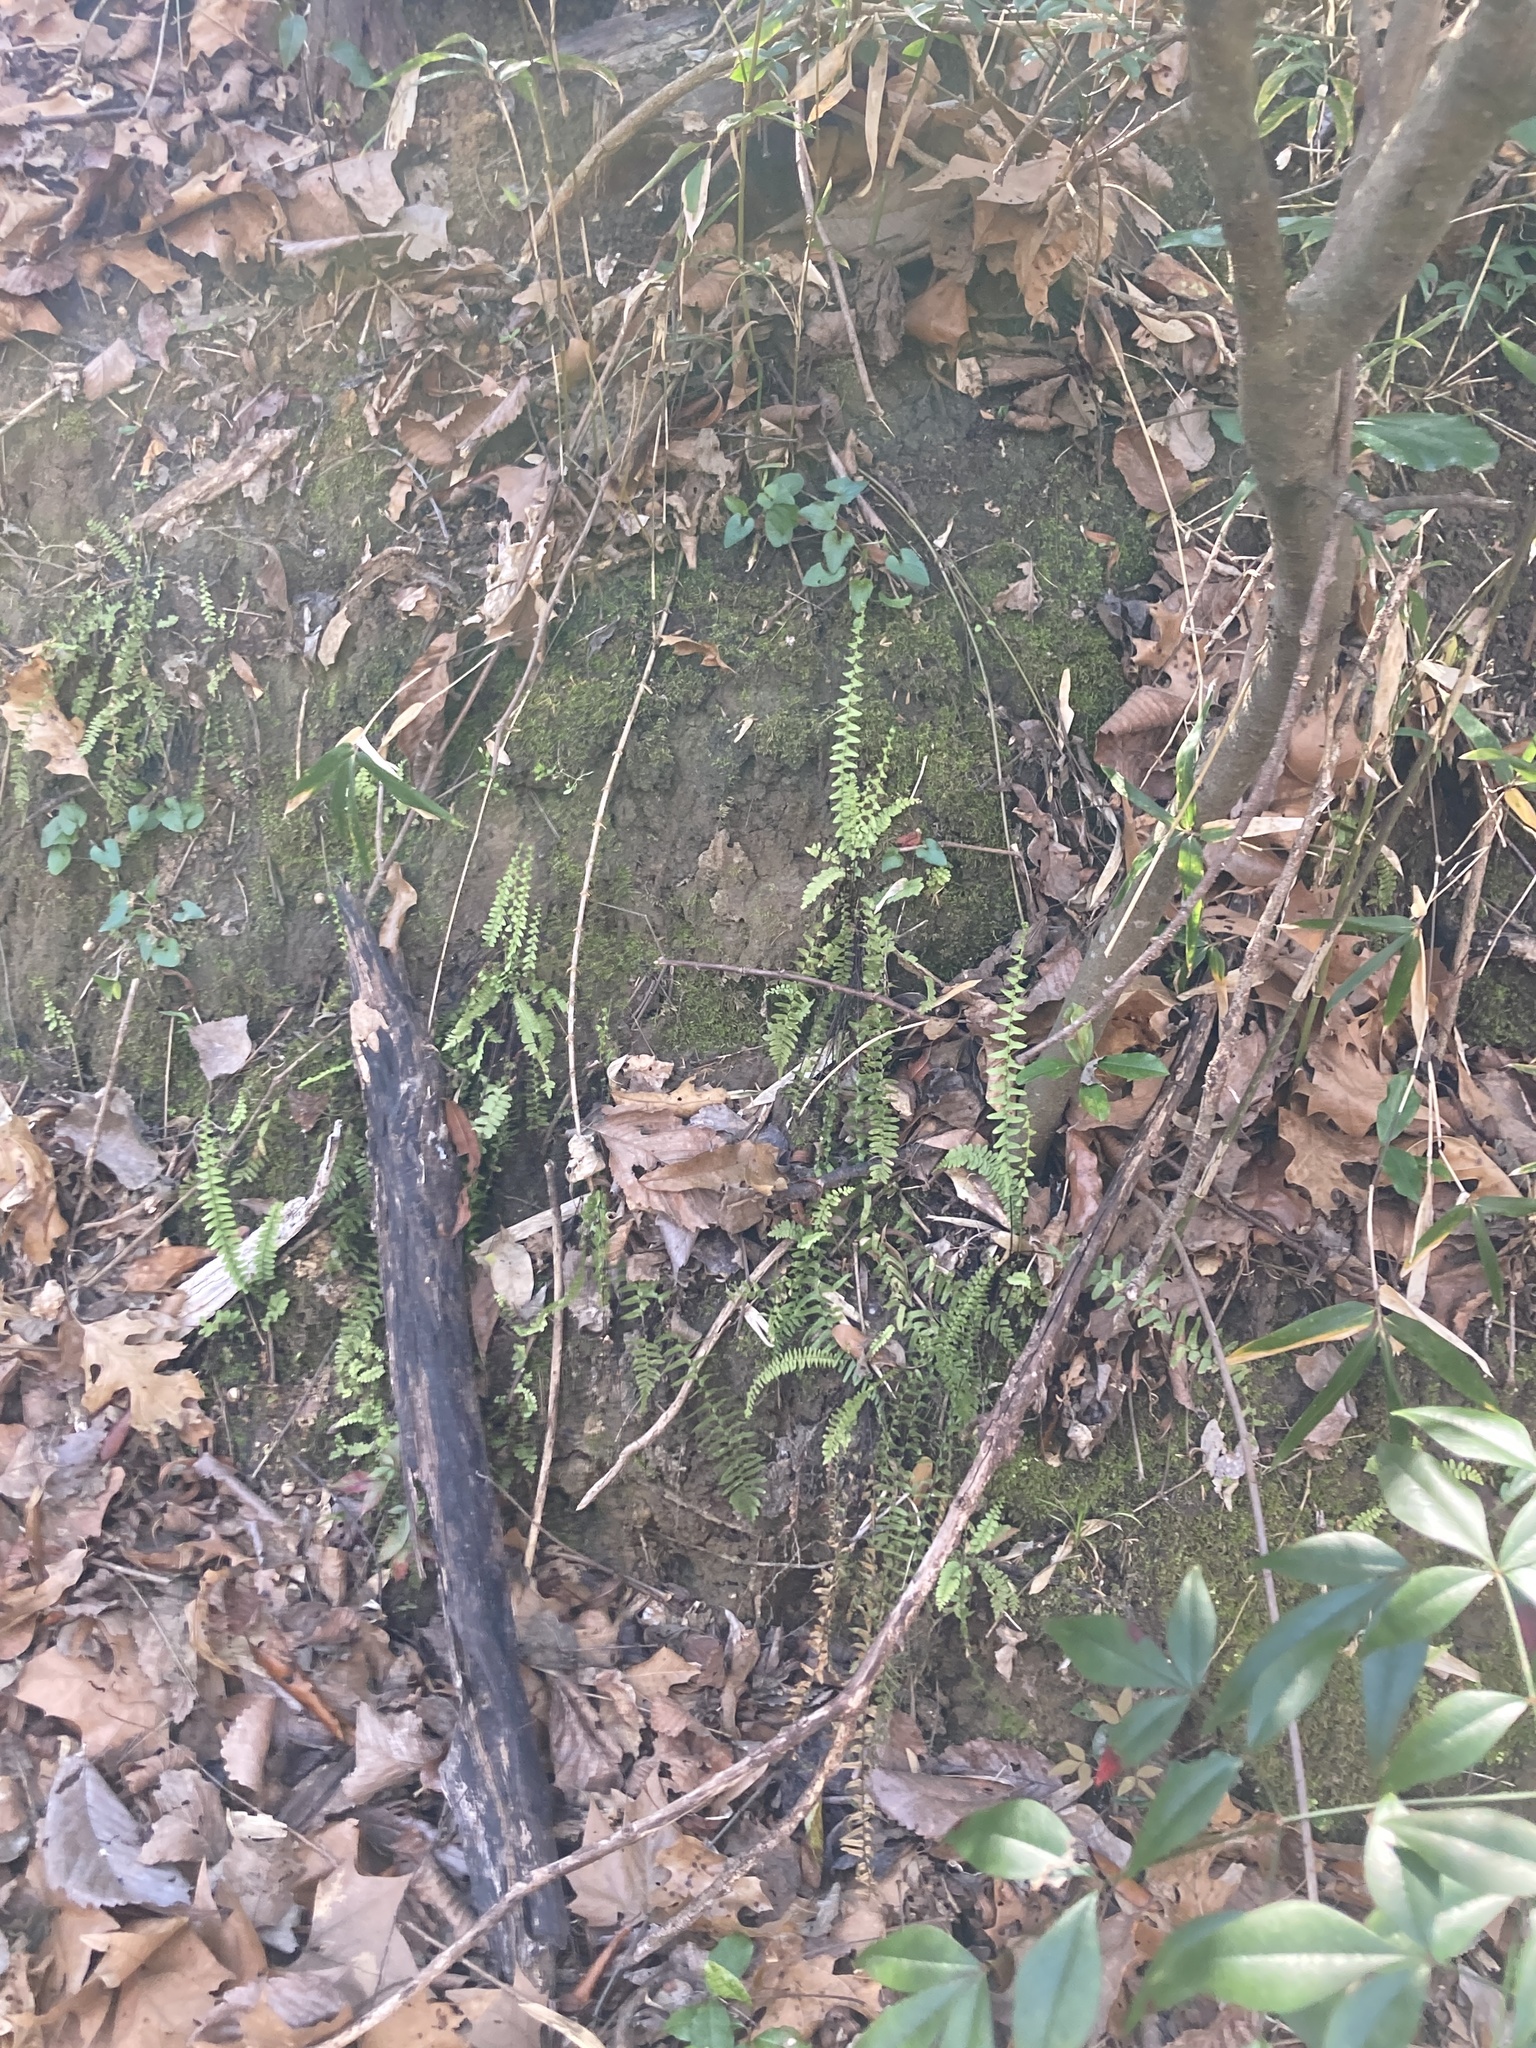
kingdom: Plantae
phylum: Tracheophyta
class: Polypodiopsida
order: Polypodiales
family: Aspleniaceae
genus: Asplenium
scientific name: Asplenium platyneuron
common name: Ebony spleenwort
